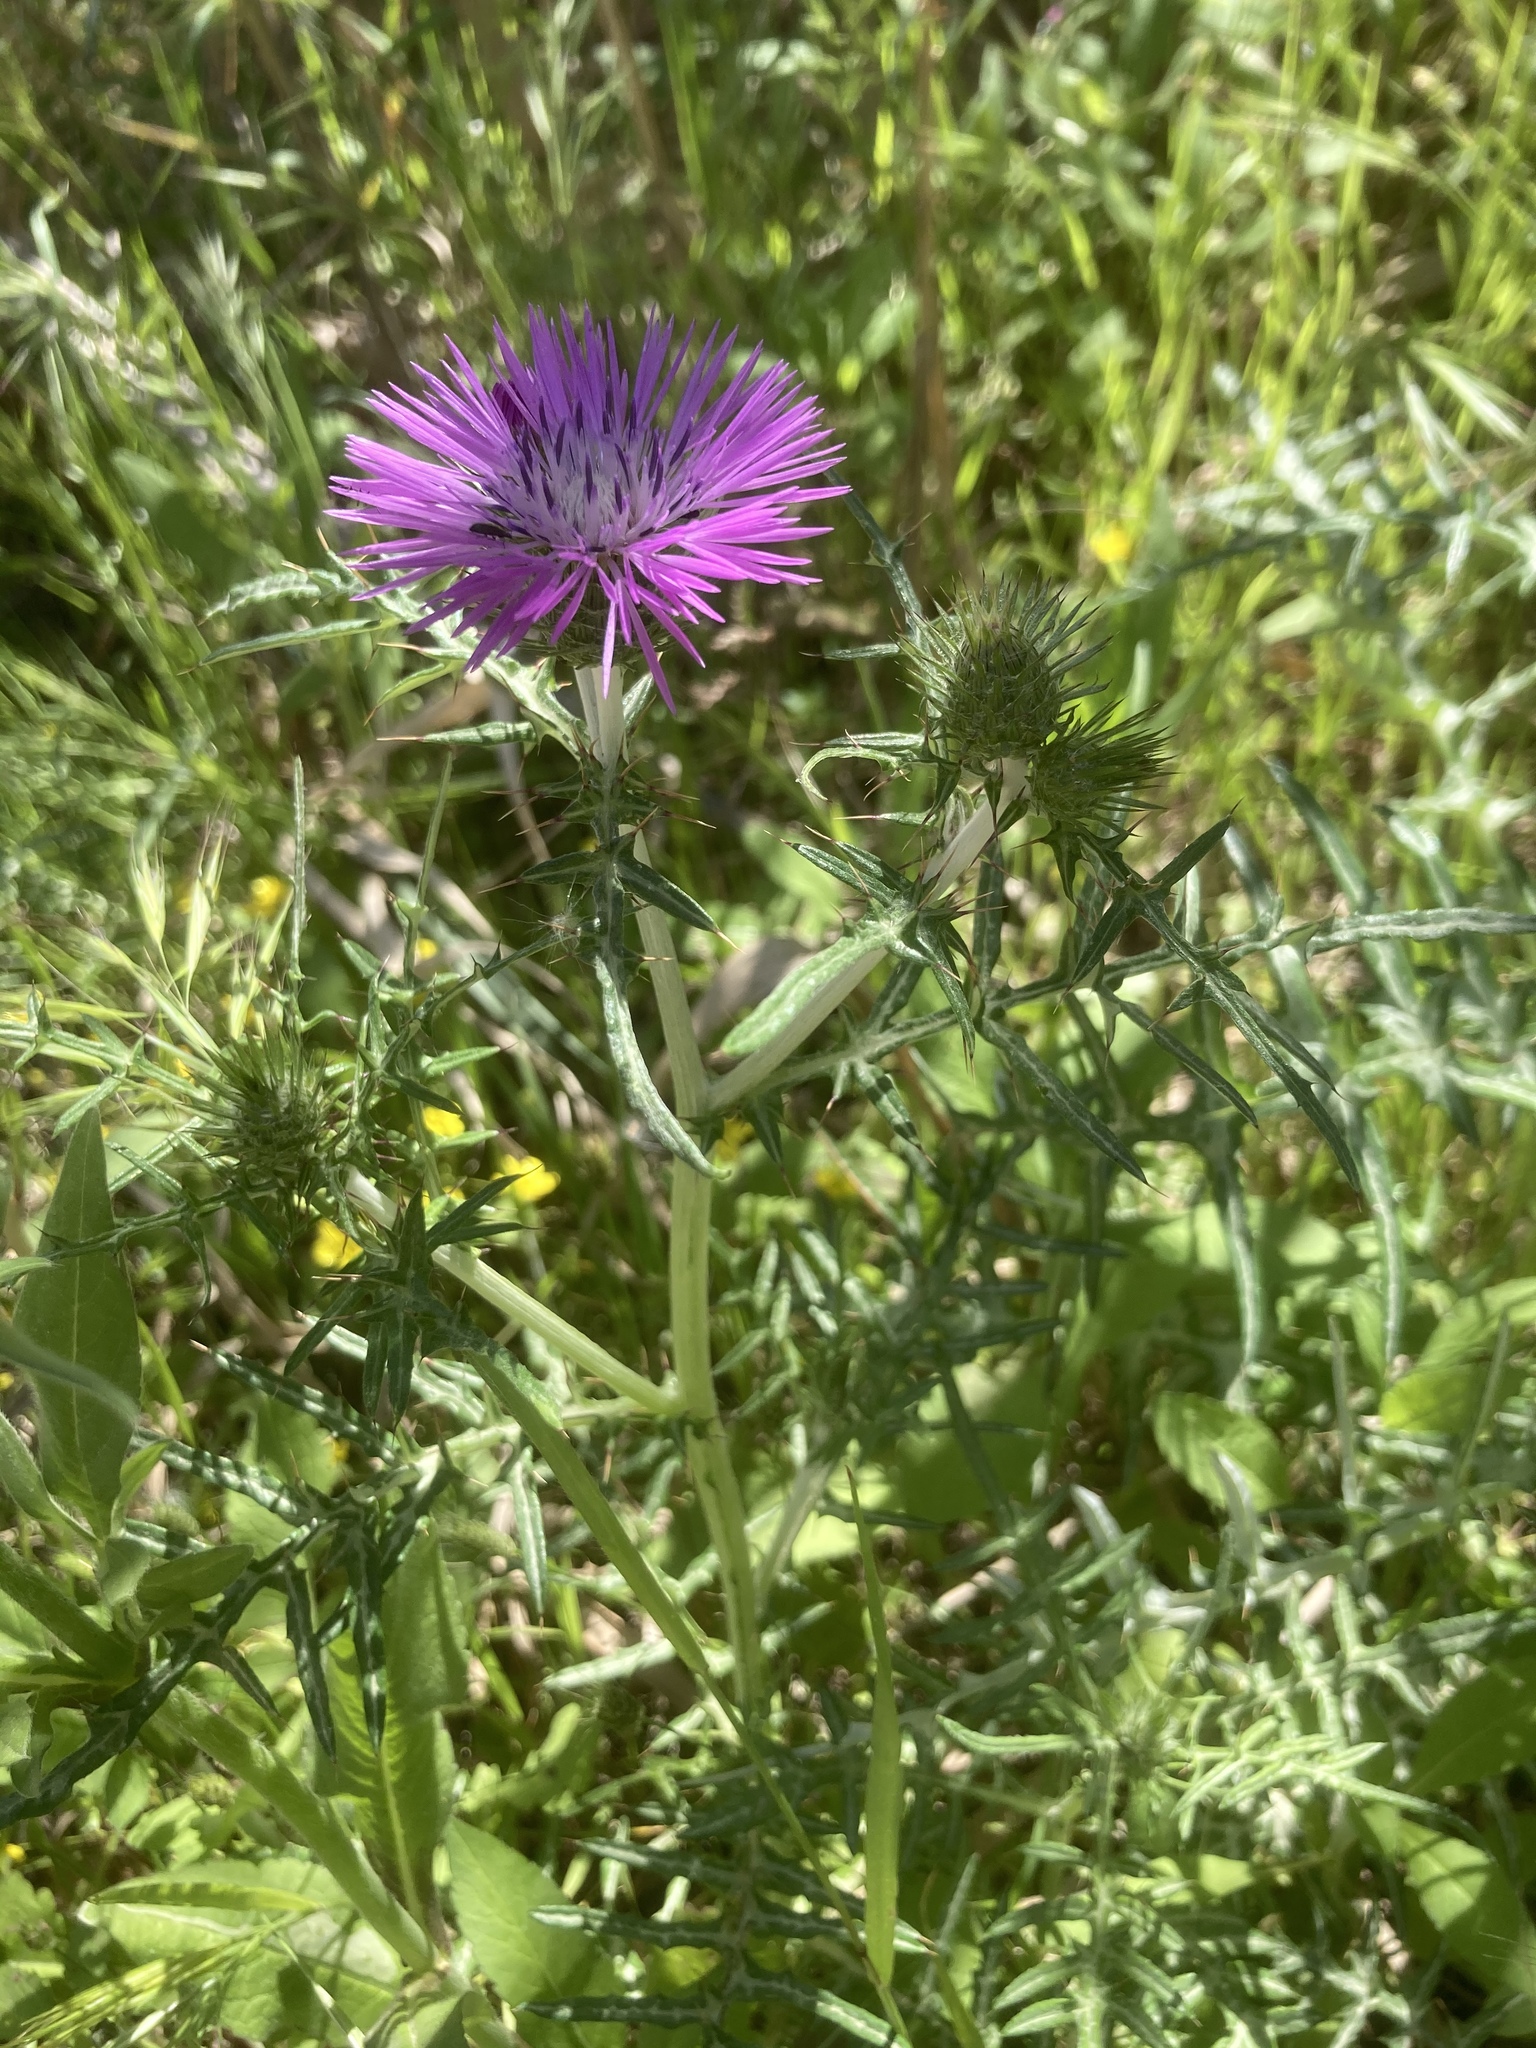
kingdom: Plantae
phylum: Tracheophyta
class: Magnoliopsida
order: Asterales
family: Asteraceae
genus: Galactites
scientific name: Galactites tomentosa
